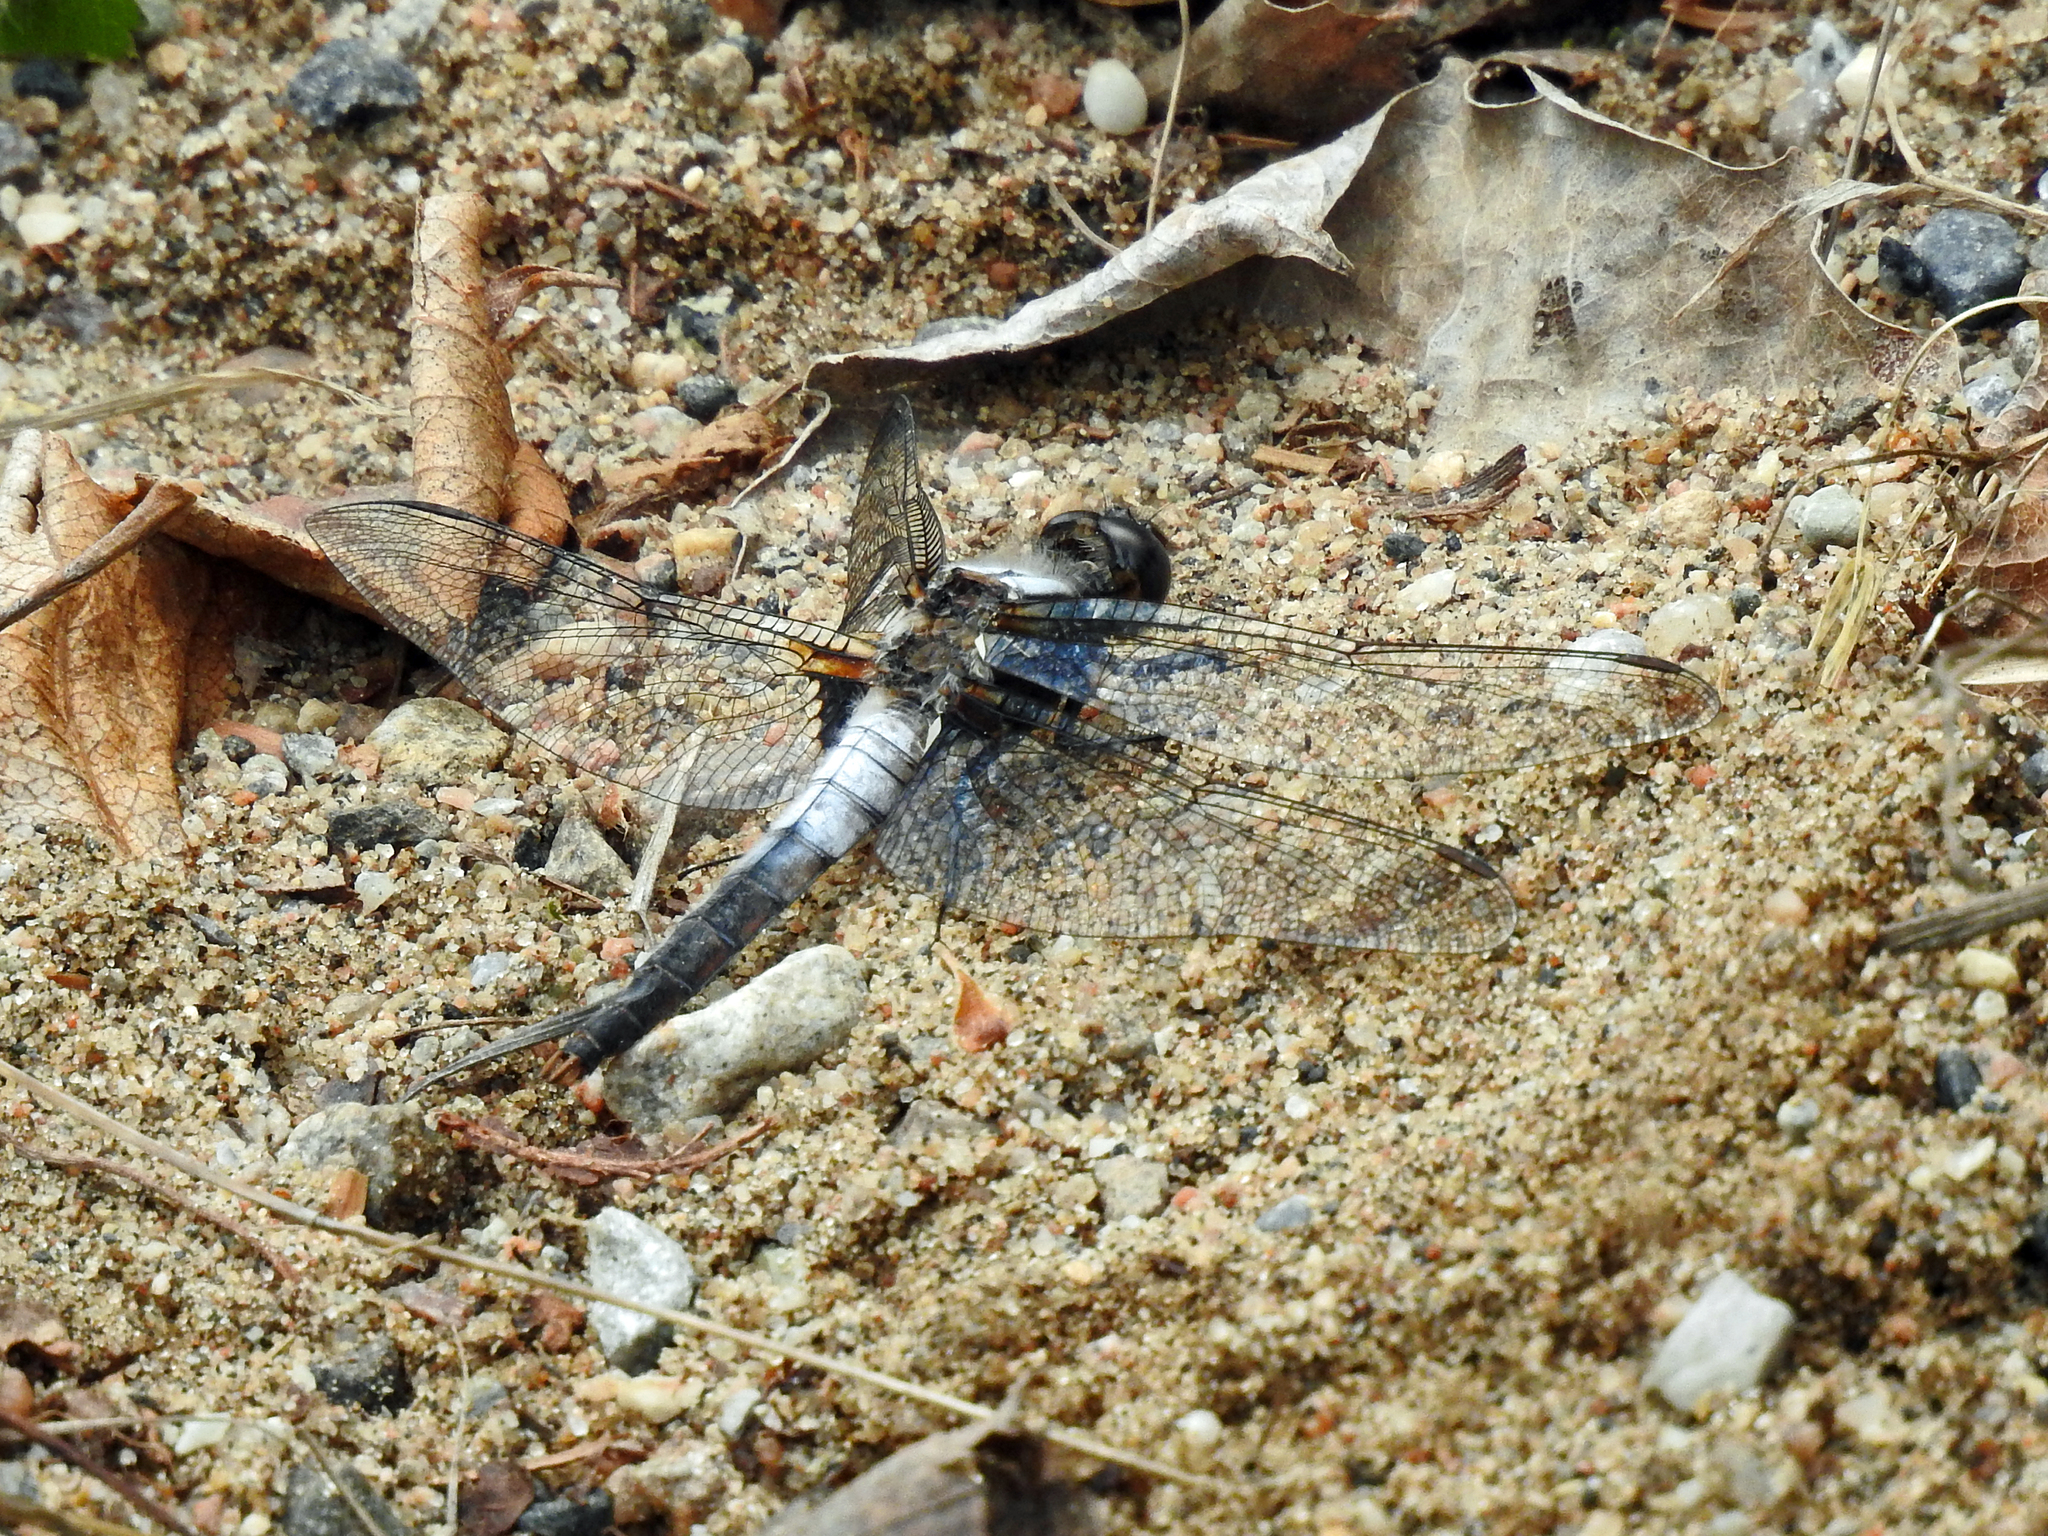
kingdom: Animalia
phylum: Arthropoda
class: Insecta
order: Odonata
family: Libellulidae
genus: Ladona
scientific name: Ladona julia
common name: Chalk-fronted corporal
